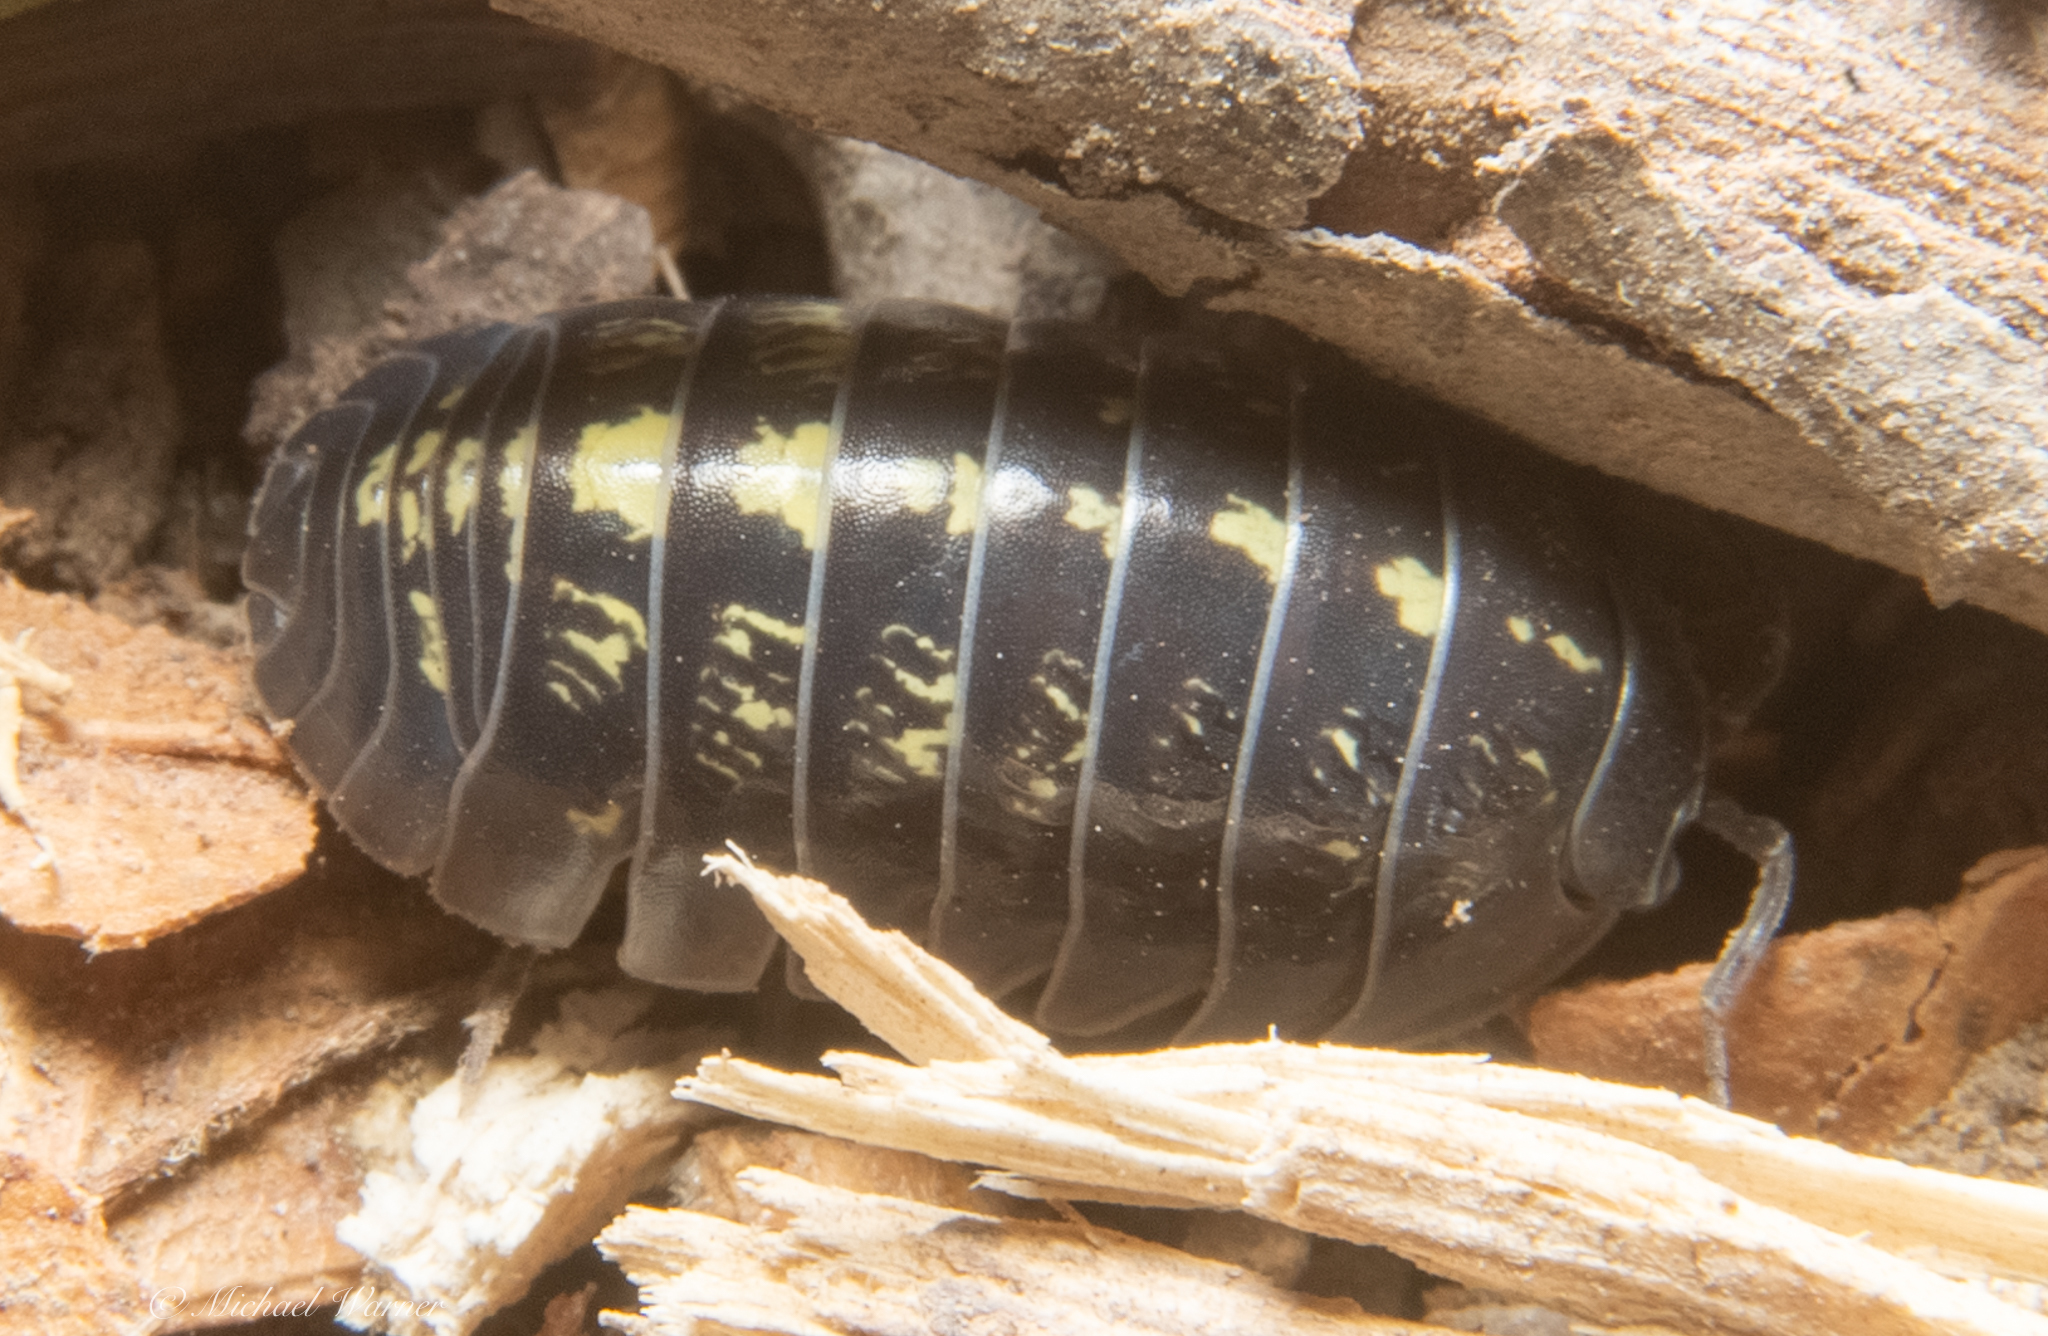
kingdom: Animalia
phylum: Arthropoda
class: Malacostraca
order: Isopoda
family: Armadillidiidae
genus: Armadillidium
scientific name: Armadillidium vulgare
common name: Common pill woodlouse
